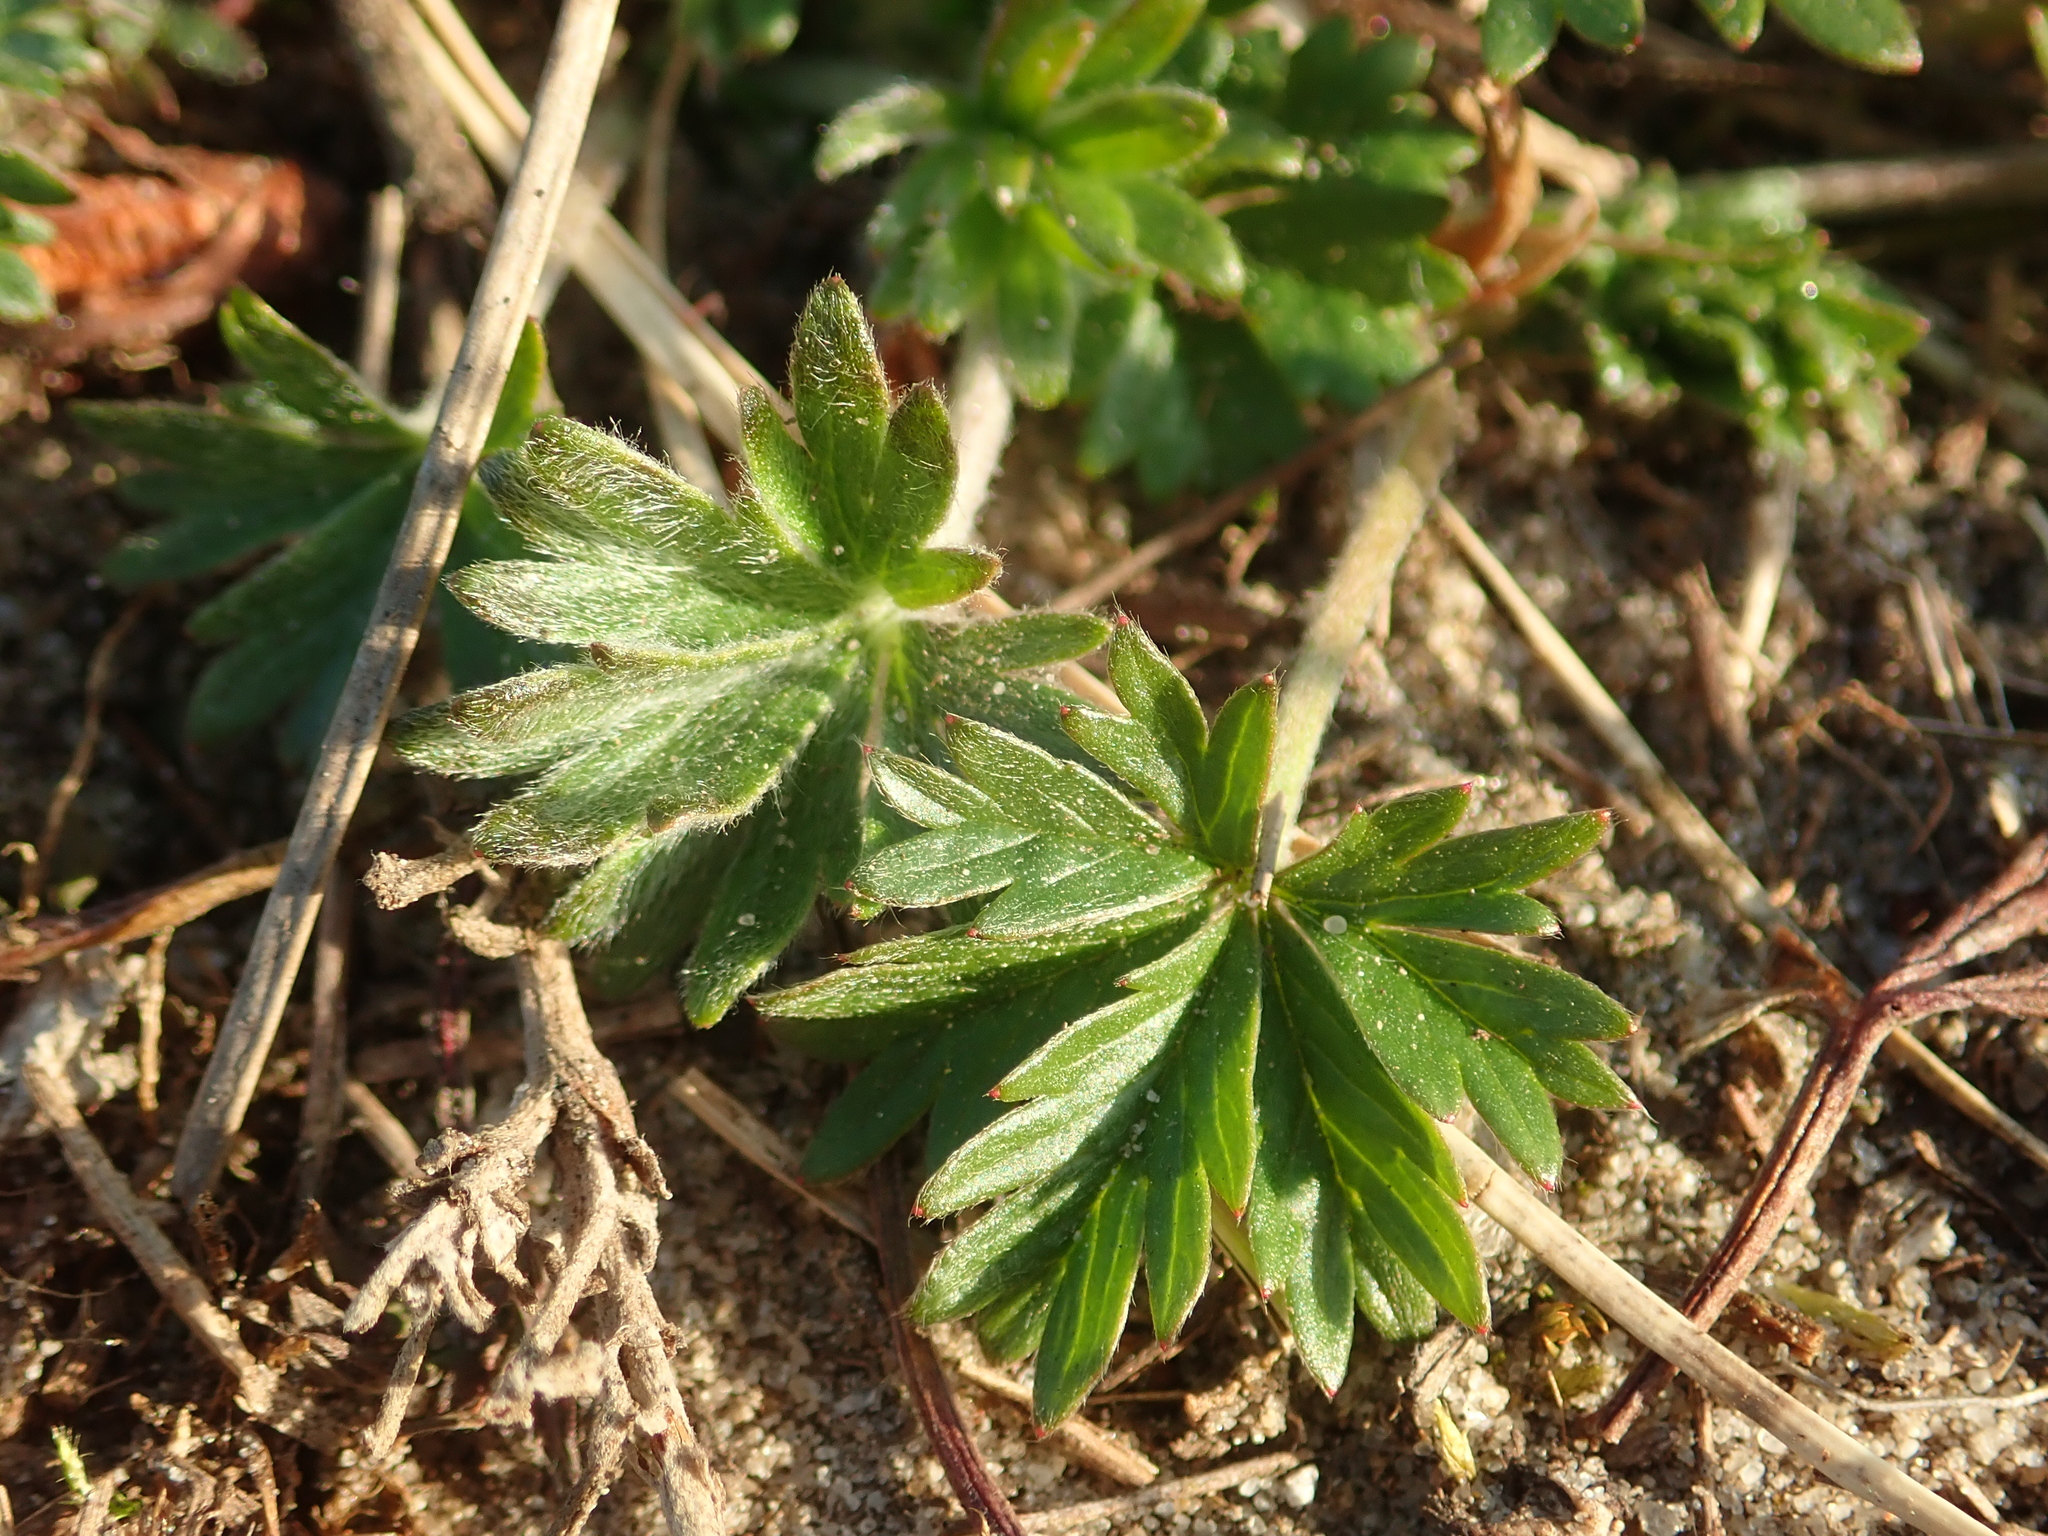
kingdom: Plantae
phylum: Tracheophyta
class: Magnoliopsida
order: Rosales
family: Rosaceae
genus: Potentilla
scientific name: Potentilla argentea
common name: Hoary cinquefoil
